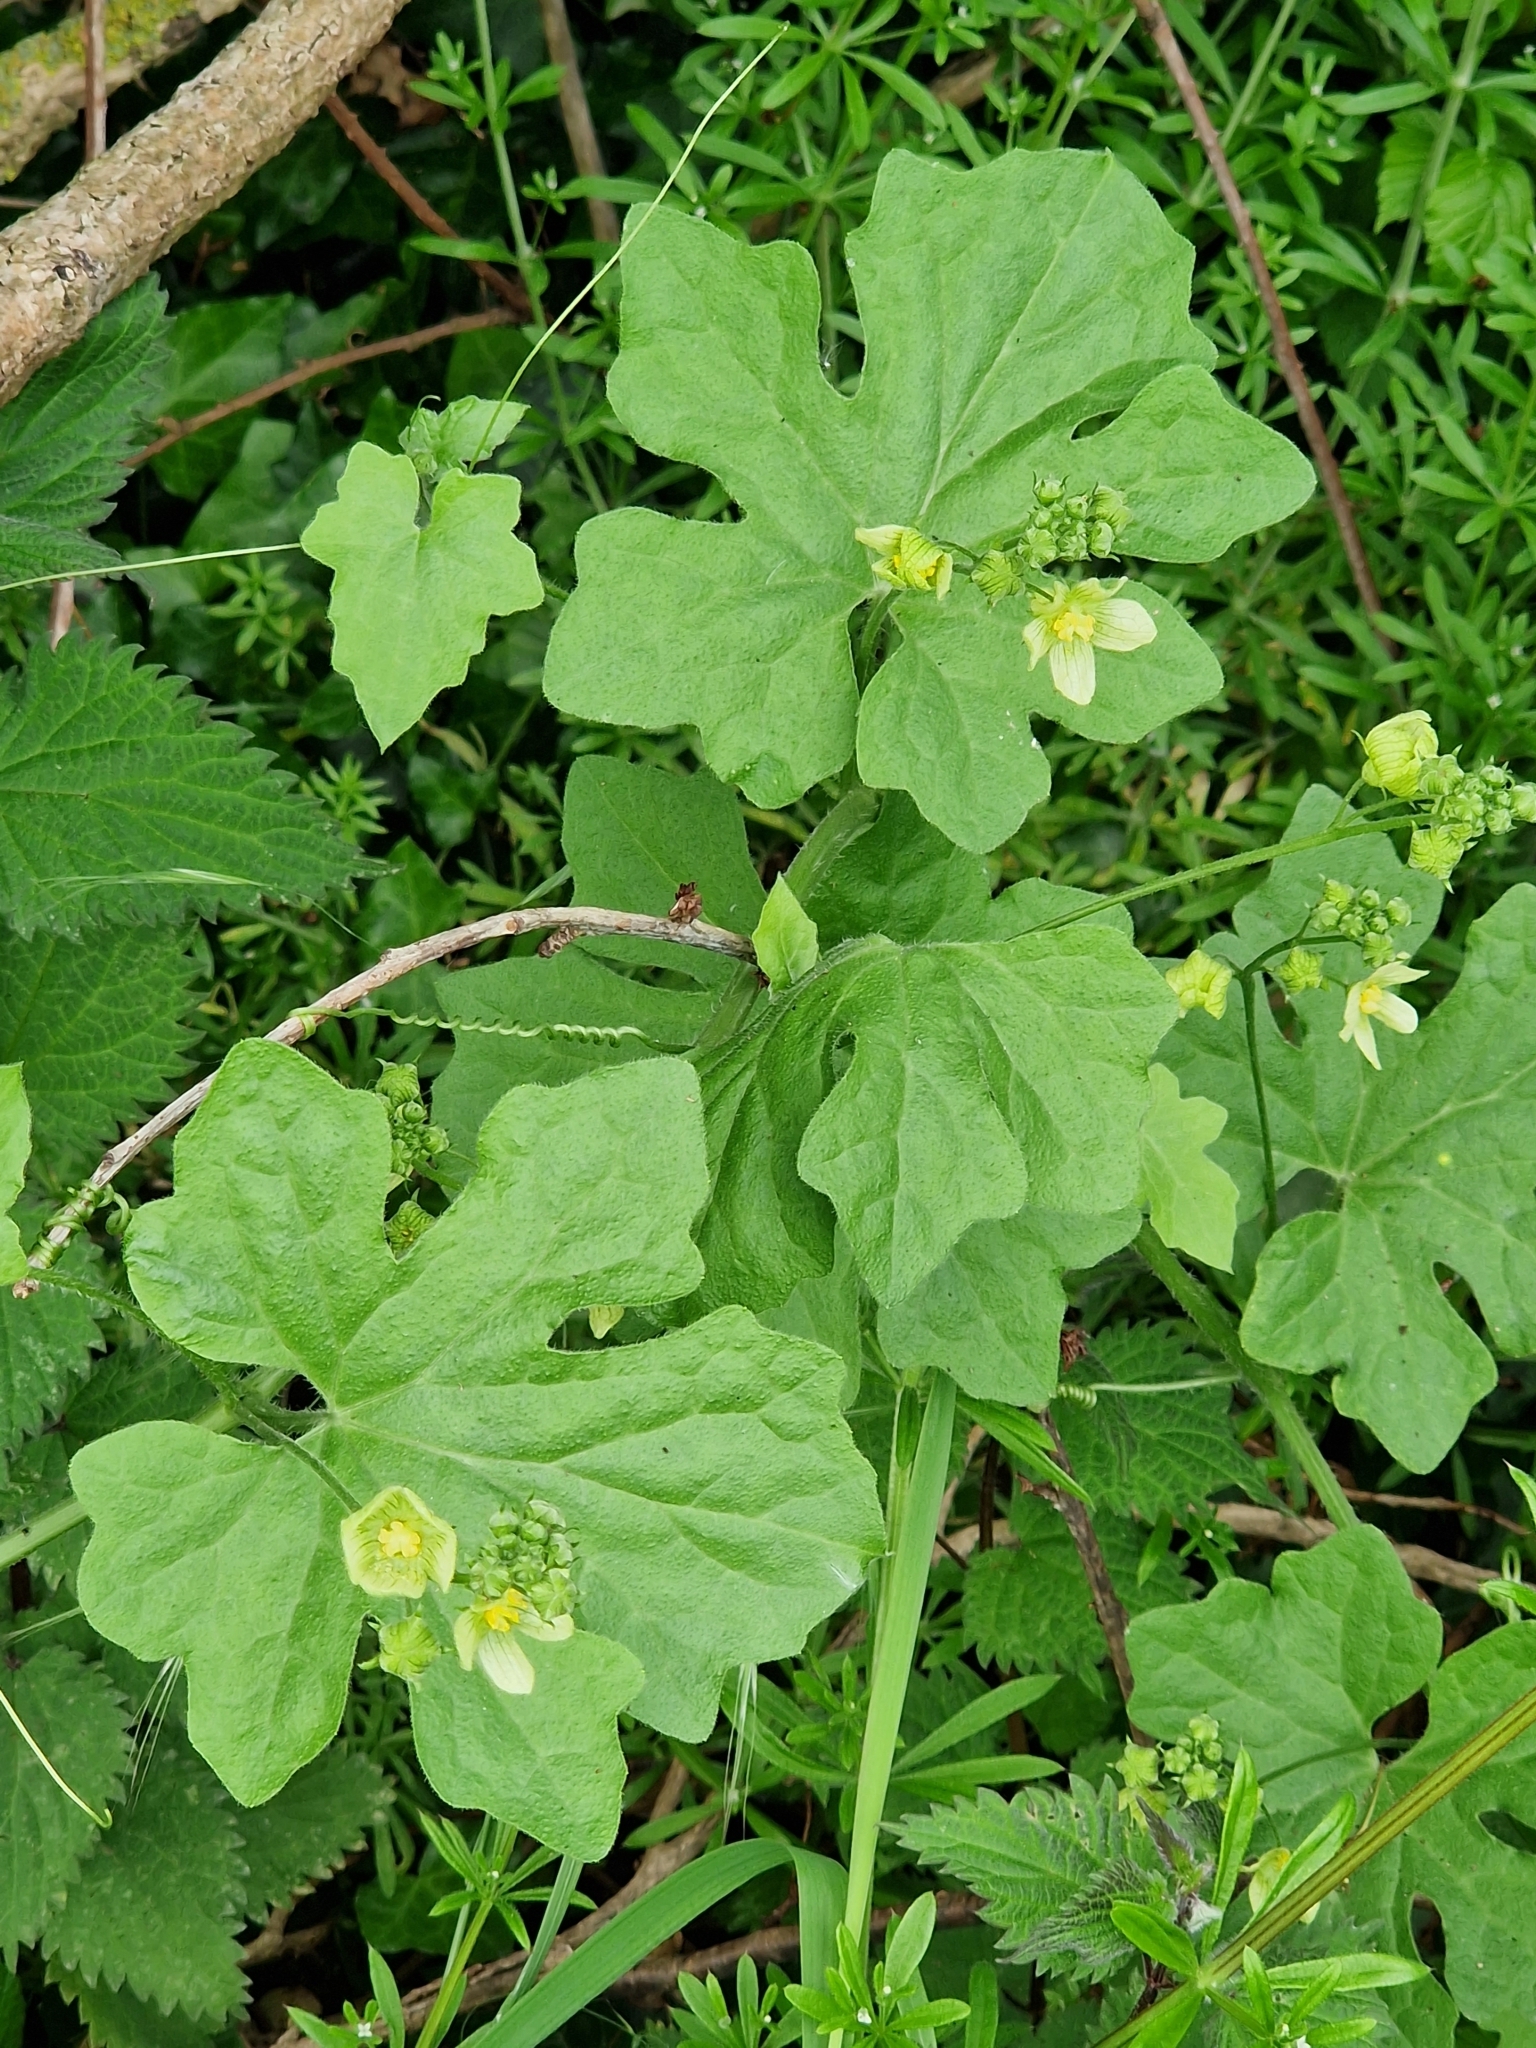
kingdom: Plantae
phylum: Tracheophyta
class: Magnoliopsida
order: Cucurbitales
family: Cucurbitaceae
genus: Bryonia
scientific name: Bryonia dioica
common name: White bryony
